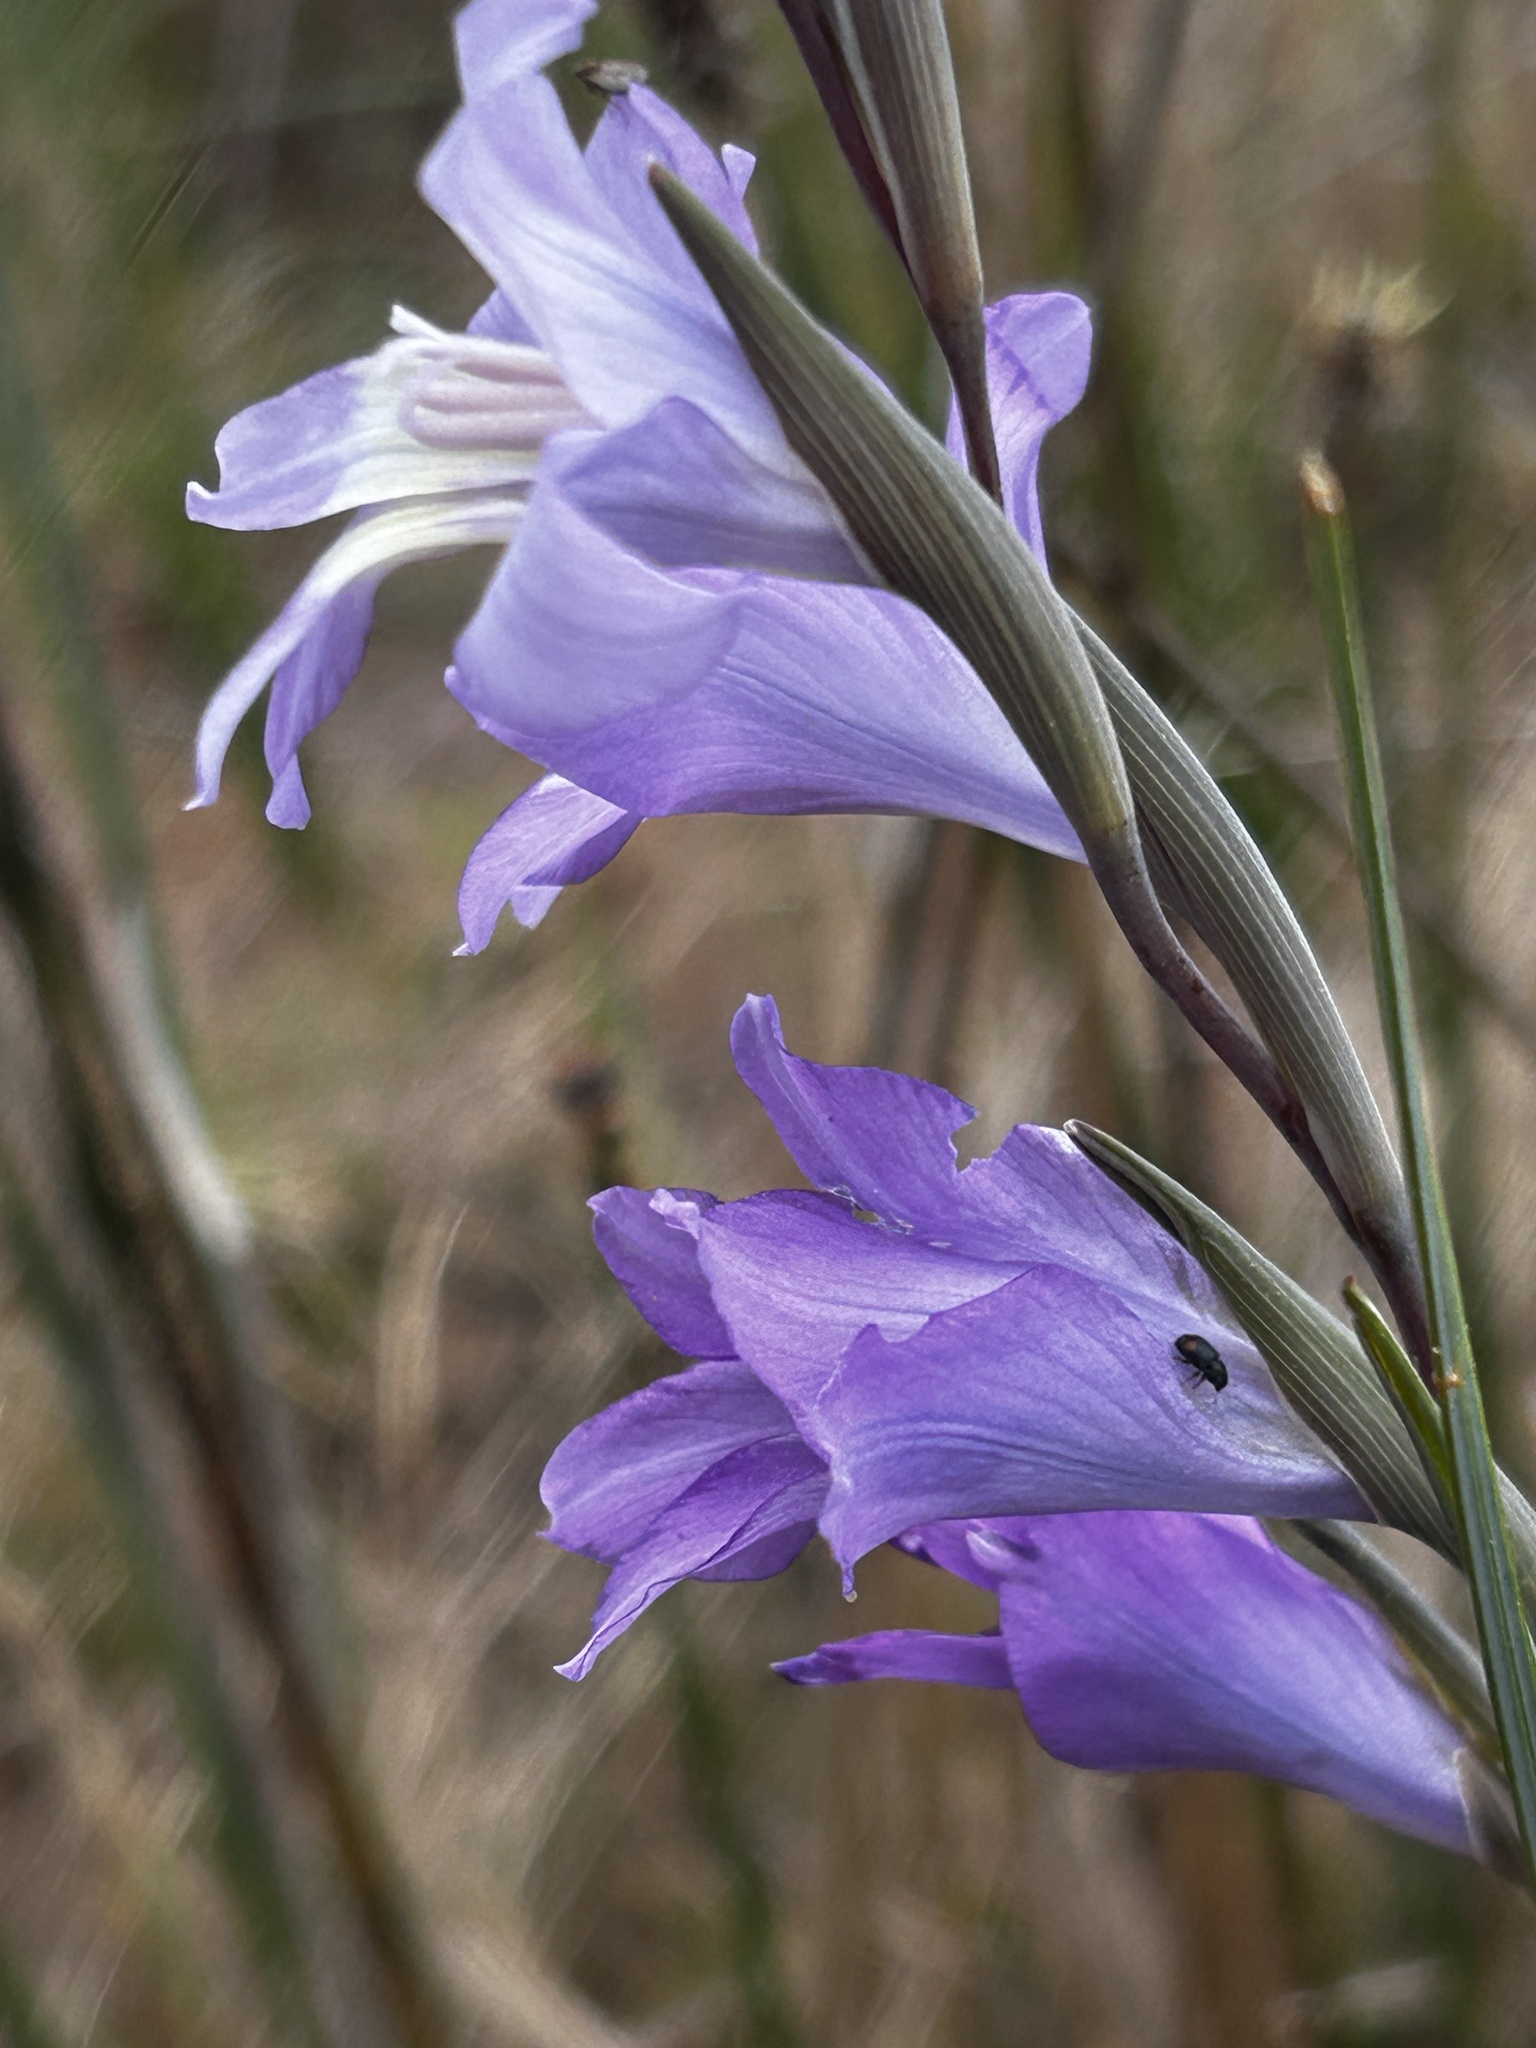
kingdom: Plantae
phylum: Tracheophyta
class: Liliopsida
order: Asparagales
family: Iridaceae
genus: Gladiolus
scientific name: Gladiolus carinatus
